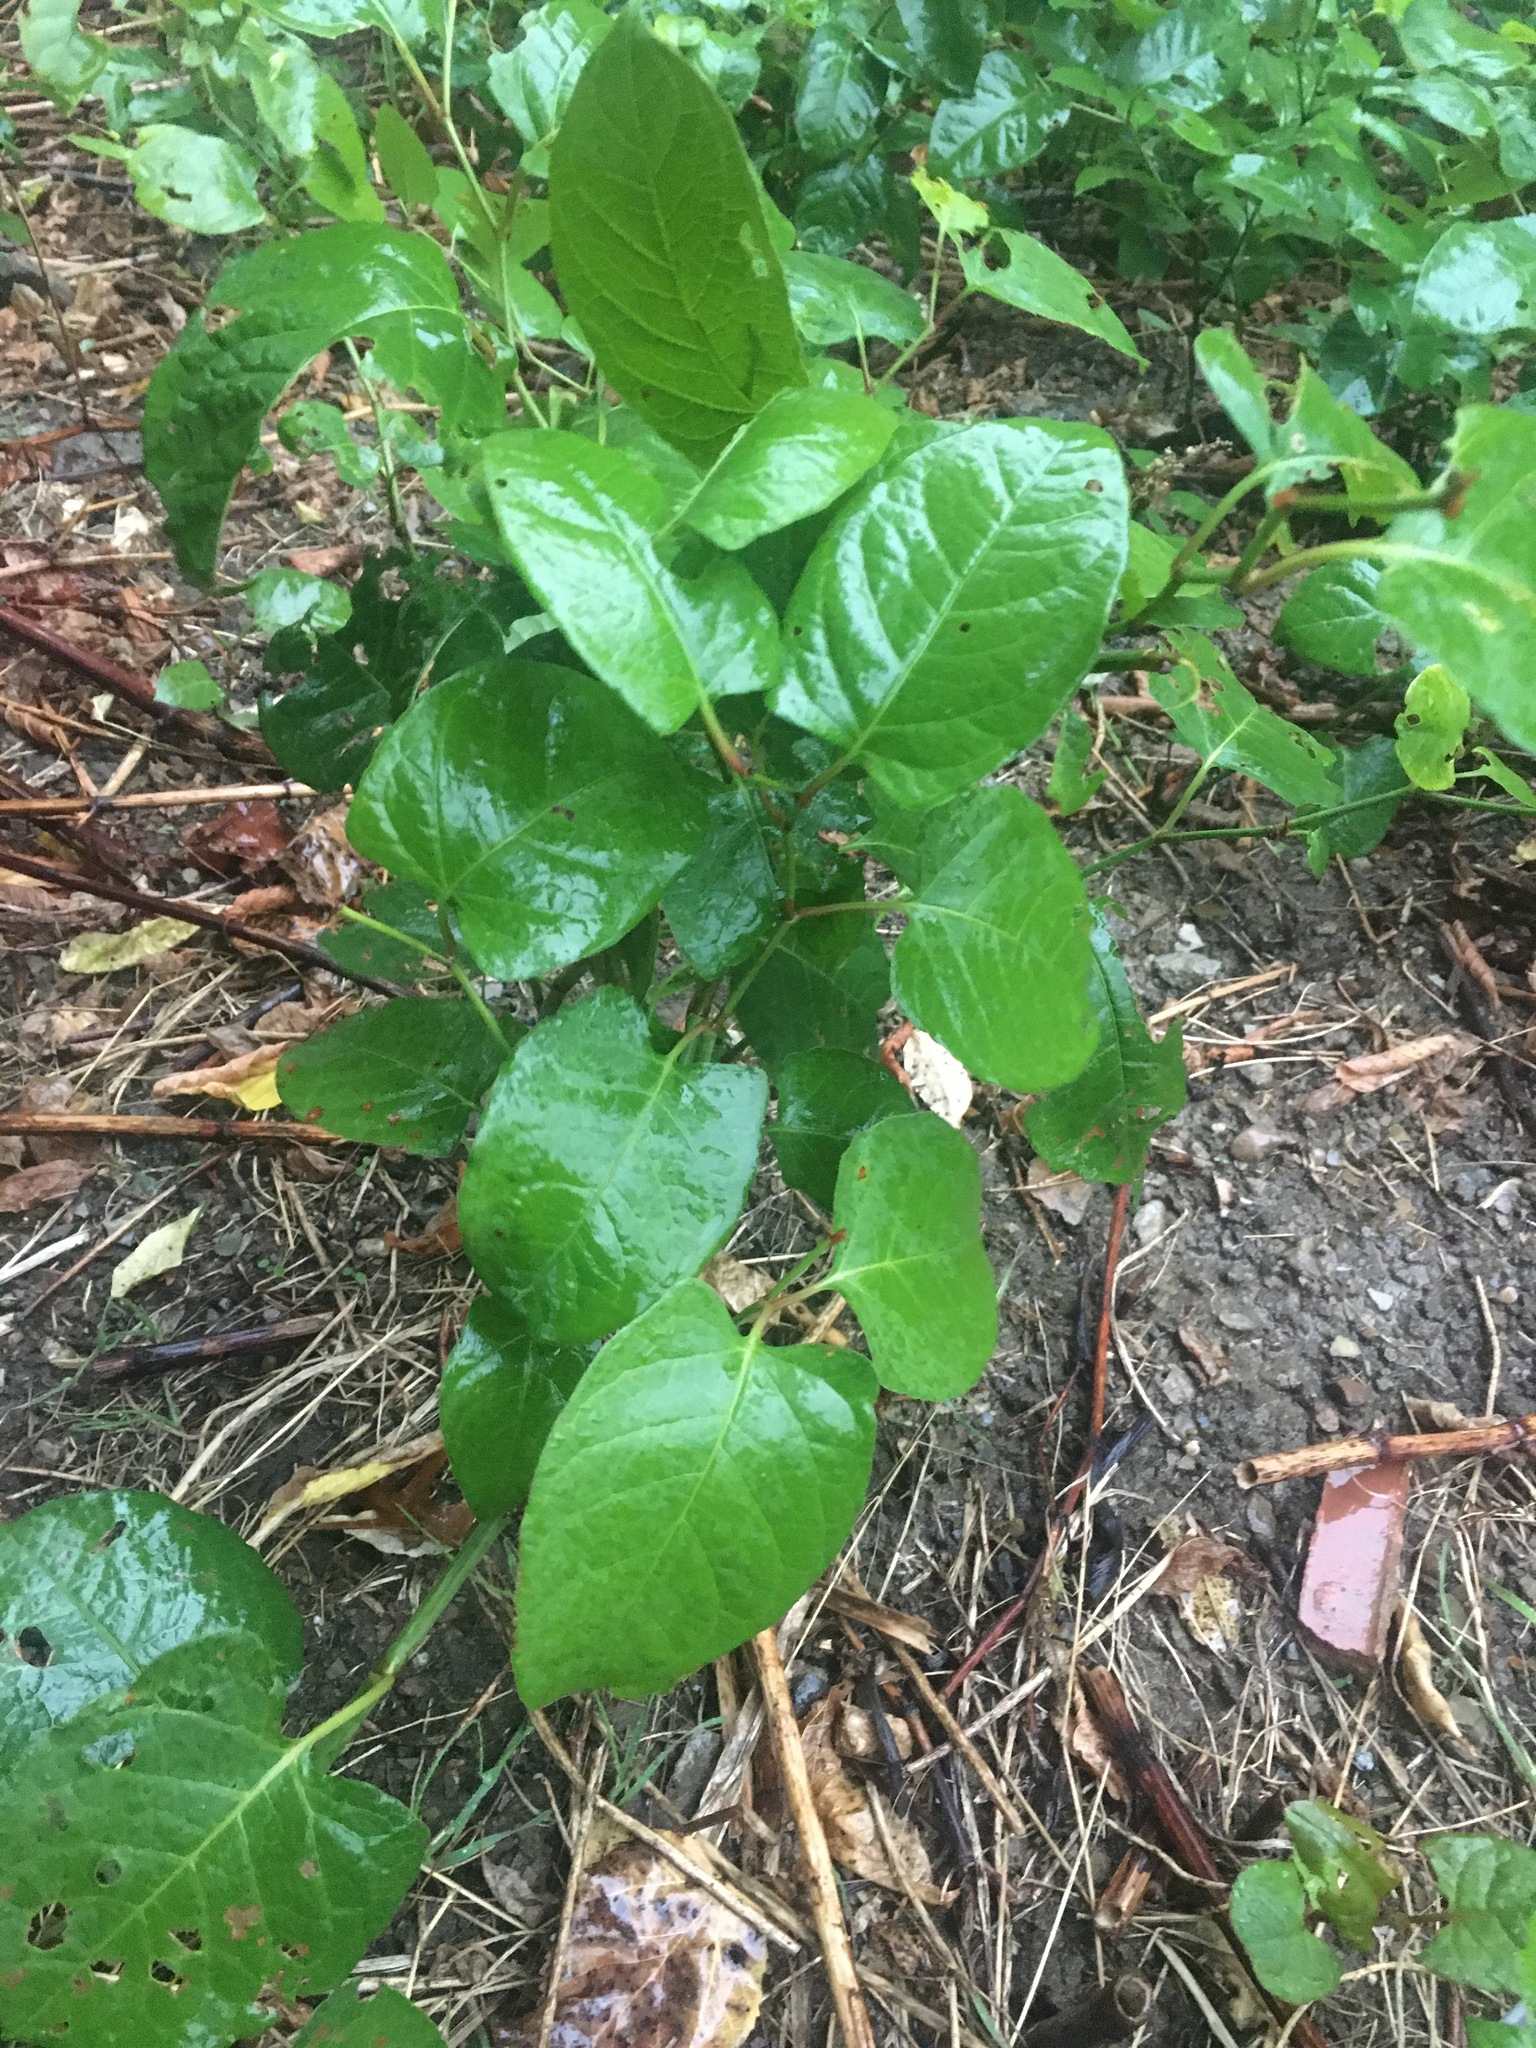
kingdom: Plantae
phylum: Tracheophyta
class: Magnoliopsida
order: Caryophyllales
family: Polygonaceae
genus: Reynoutria
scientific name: Reynoutria bohemica
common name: Bohemian knotweed
